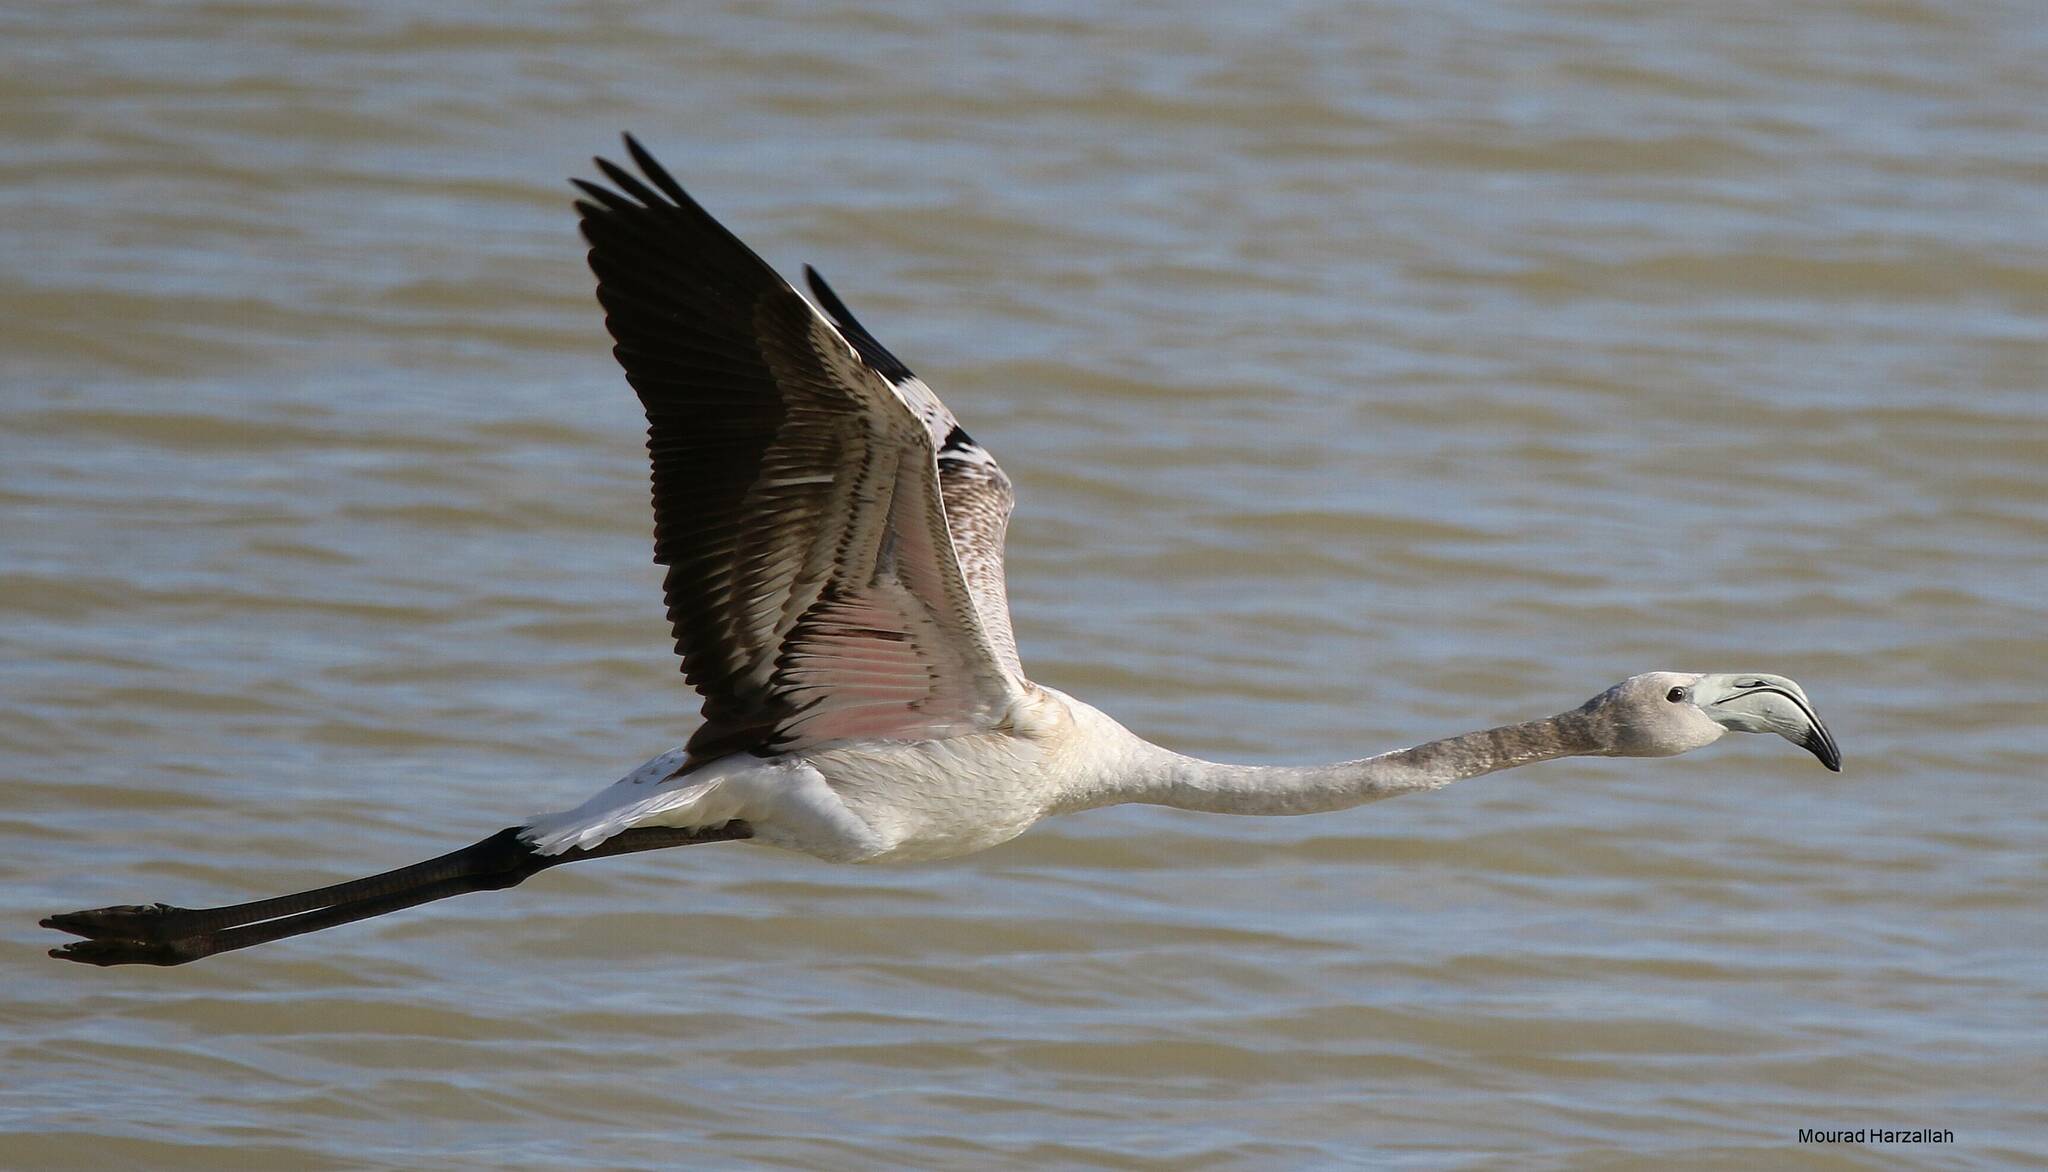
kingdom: Animalia
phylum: Chordata
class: Aves
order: Phoenicopteriformes
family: Phoenicopteridae
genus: Phoenicopterus
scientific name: Phoenicopterus roseus
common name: Greater flamingo
